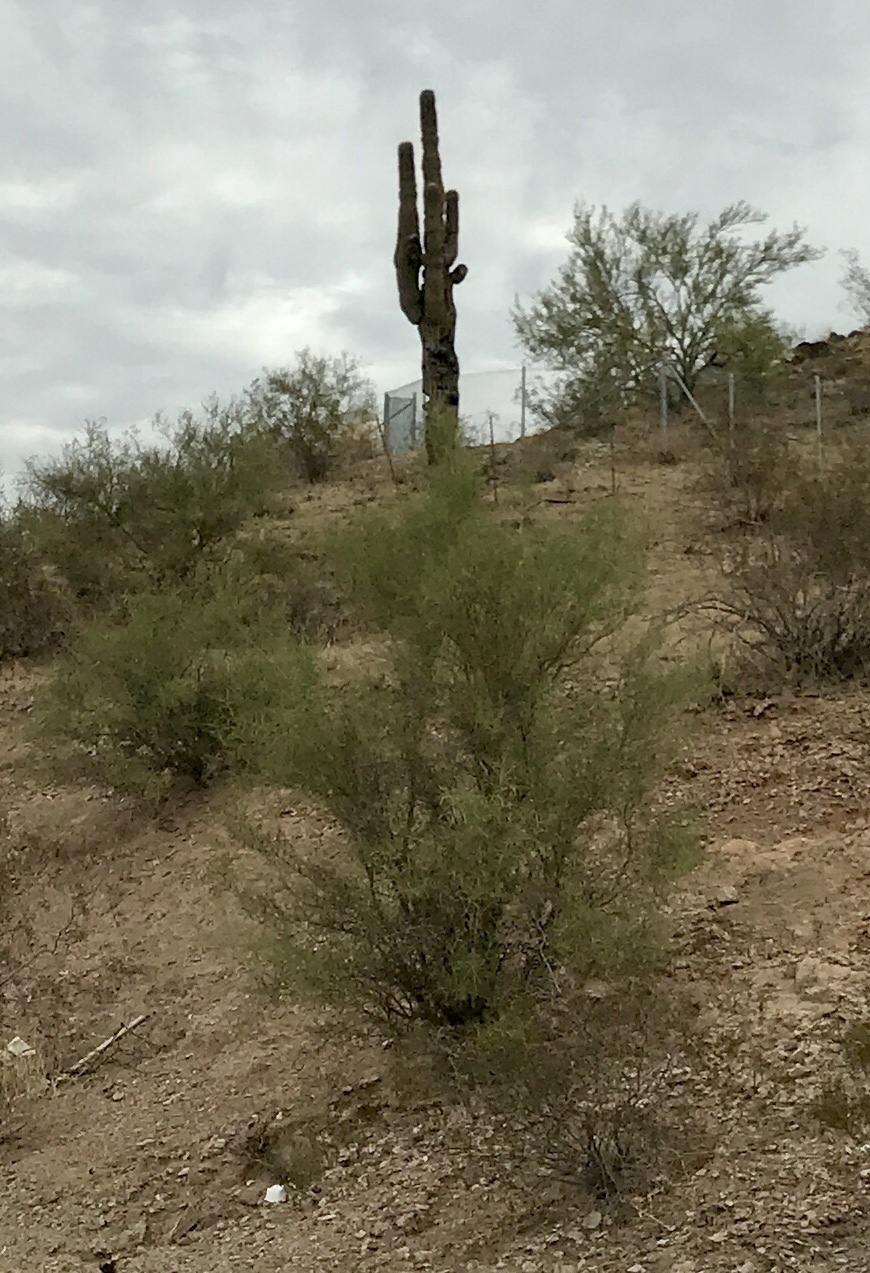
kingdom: Plantae
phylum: Tracheophyta
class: Magnoliopsida
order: Fabales
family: Fabaceae
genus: Parkinsonia
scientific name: Parkinsonia microphylla
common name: Yellow paloverde
